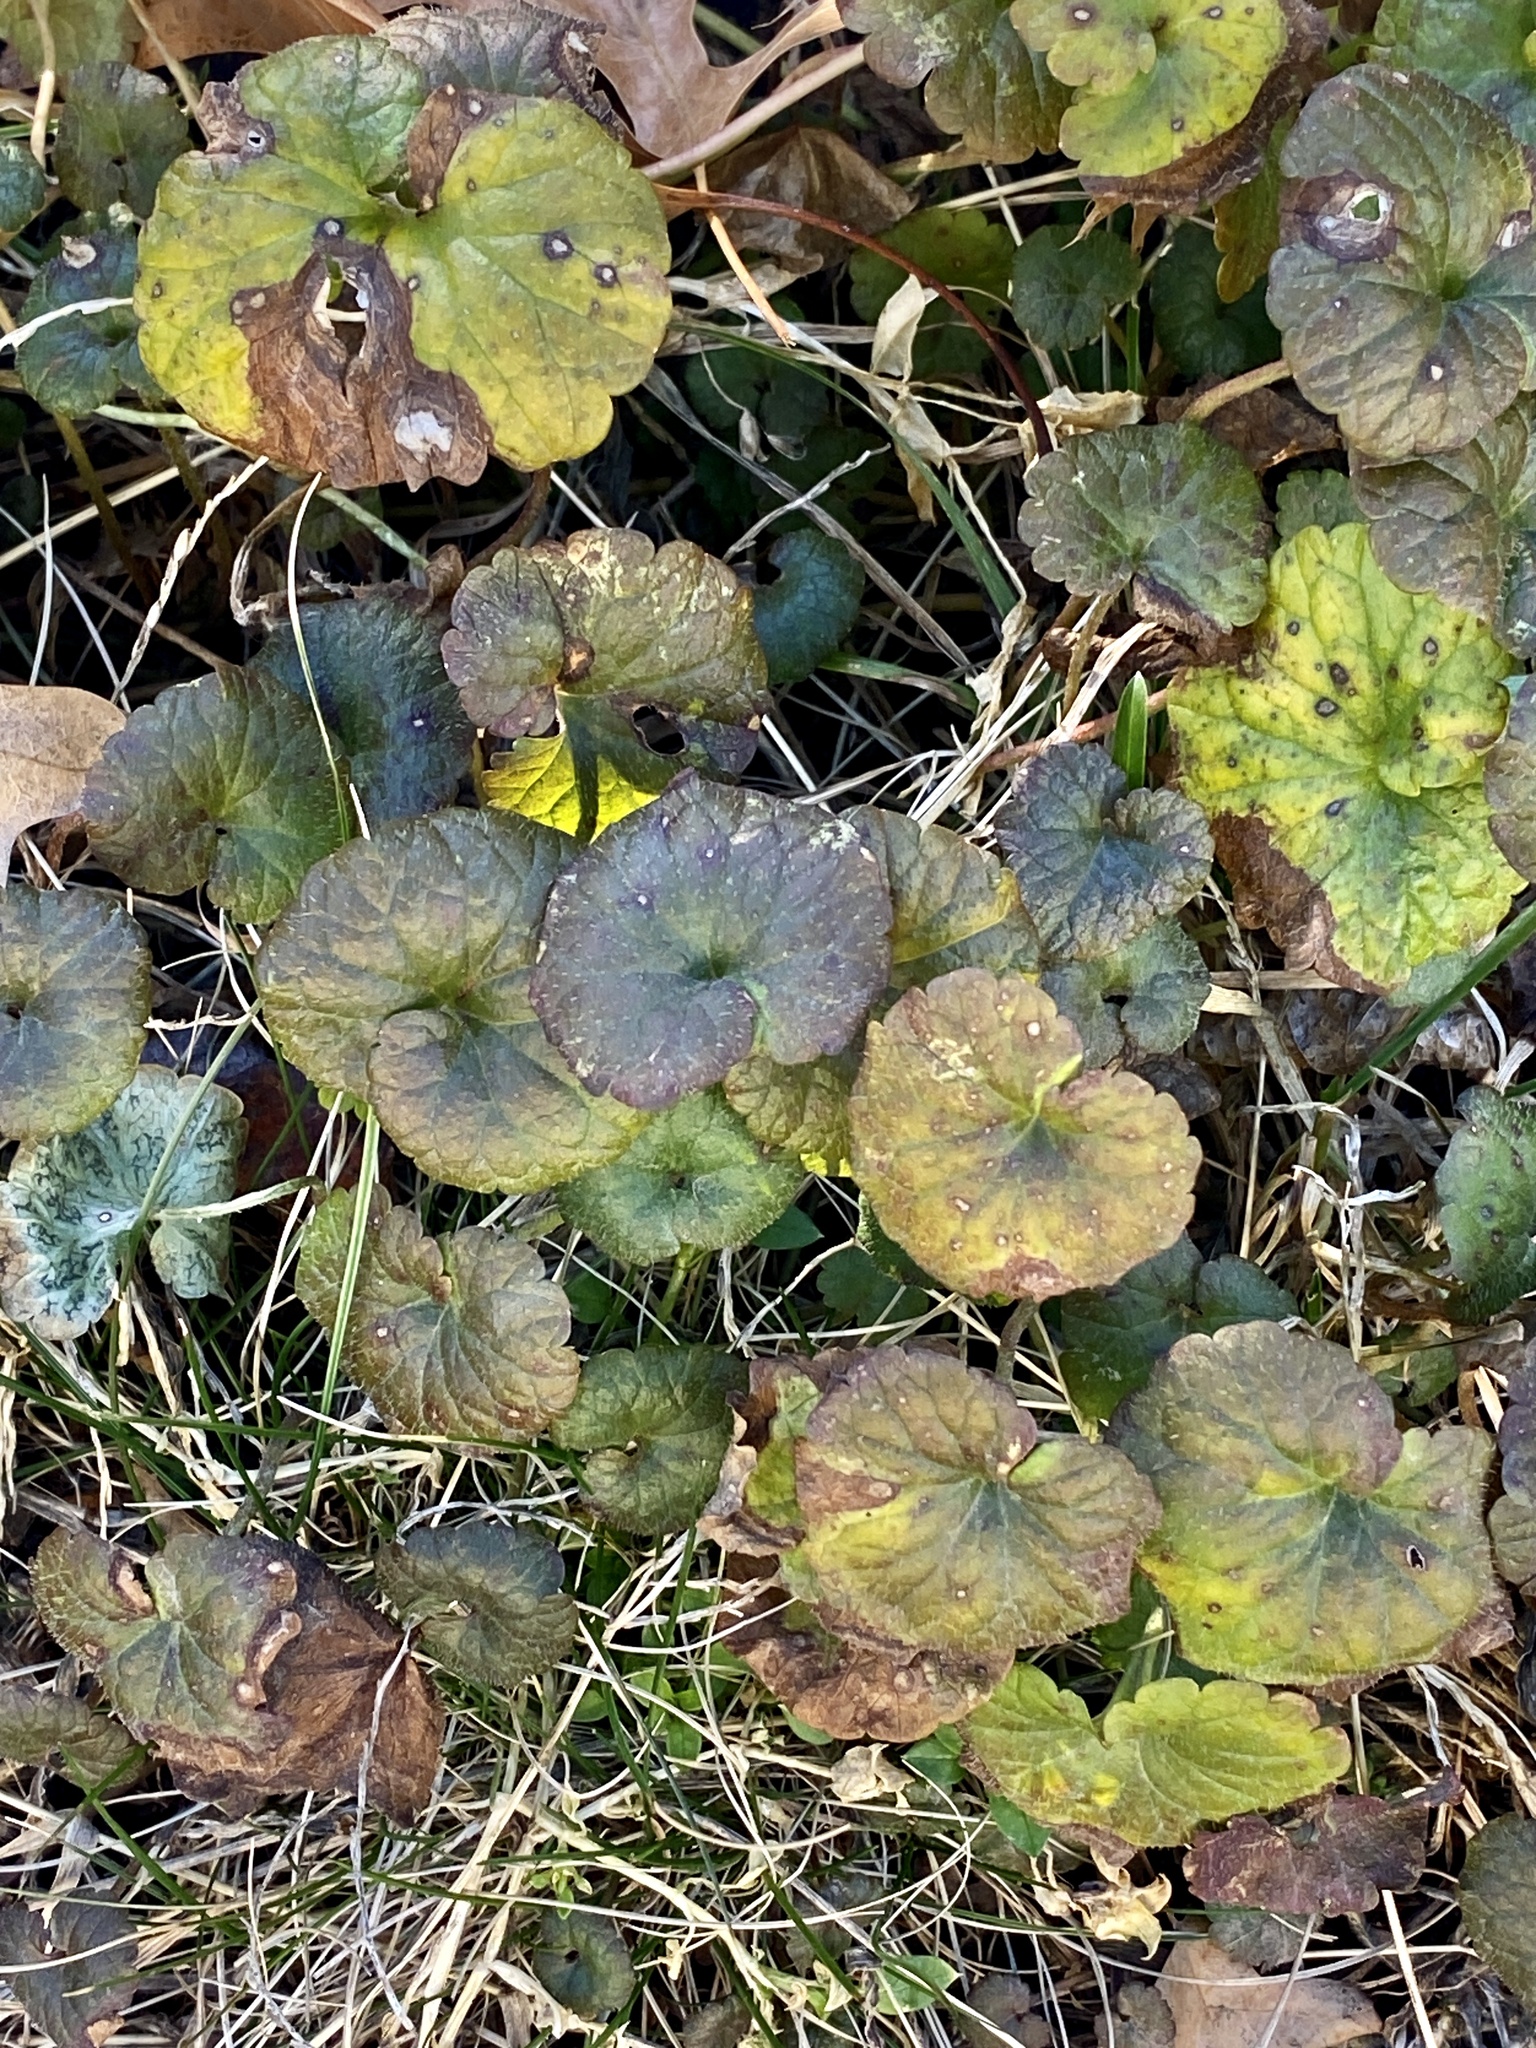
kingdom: Plantae
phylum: Tracheophyta
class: Magnoliopsida
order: Lamiales
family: Lamiaceae
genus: Glechoma
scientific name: Glechoma hederacea
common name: Ground ivy
